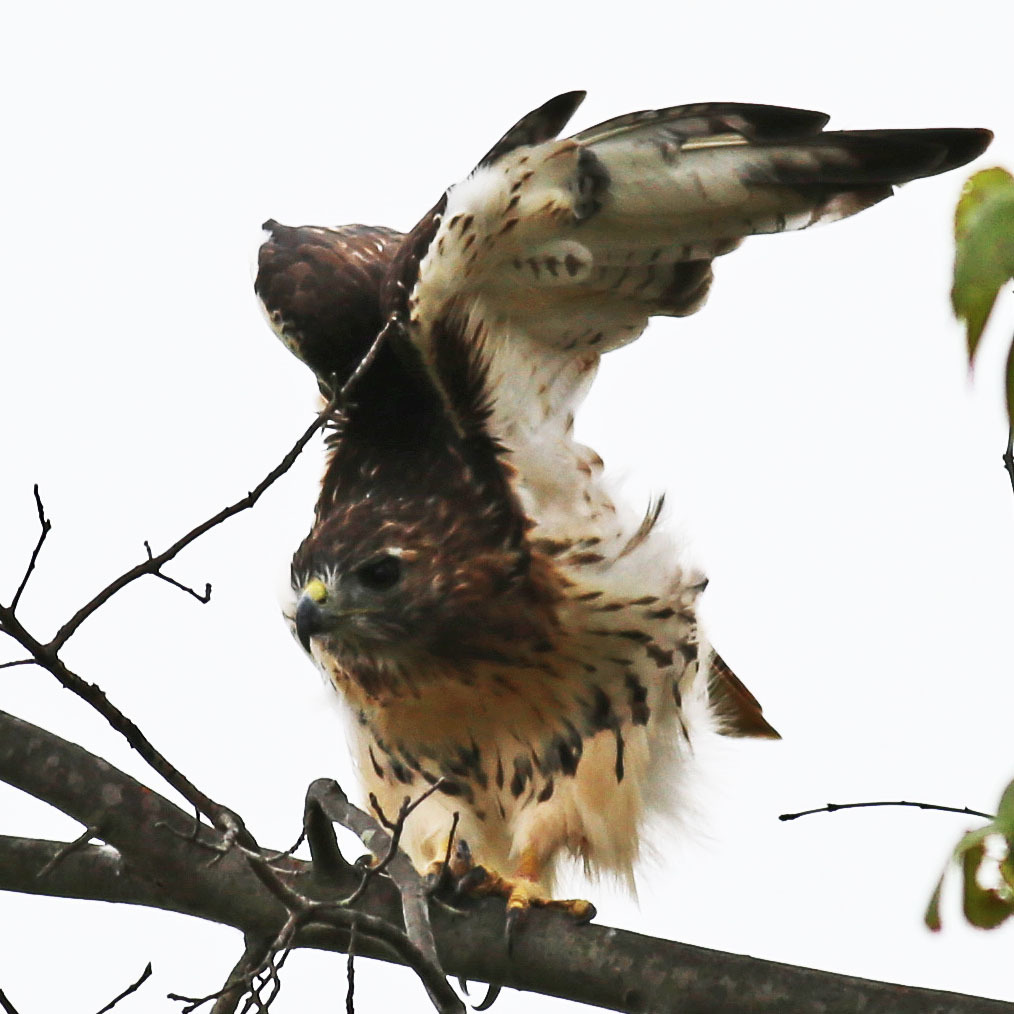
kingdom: Animalia
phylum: Chordata
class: Aves
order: Accipitriformes
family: Accipitridae
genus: Buteo
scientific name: Buteo jamaicensis
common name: Red-tailed hawk
